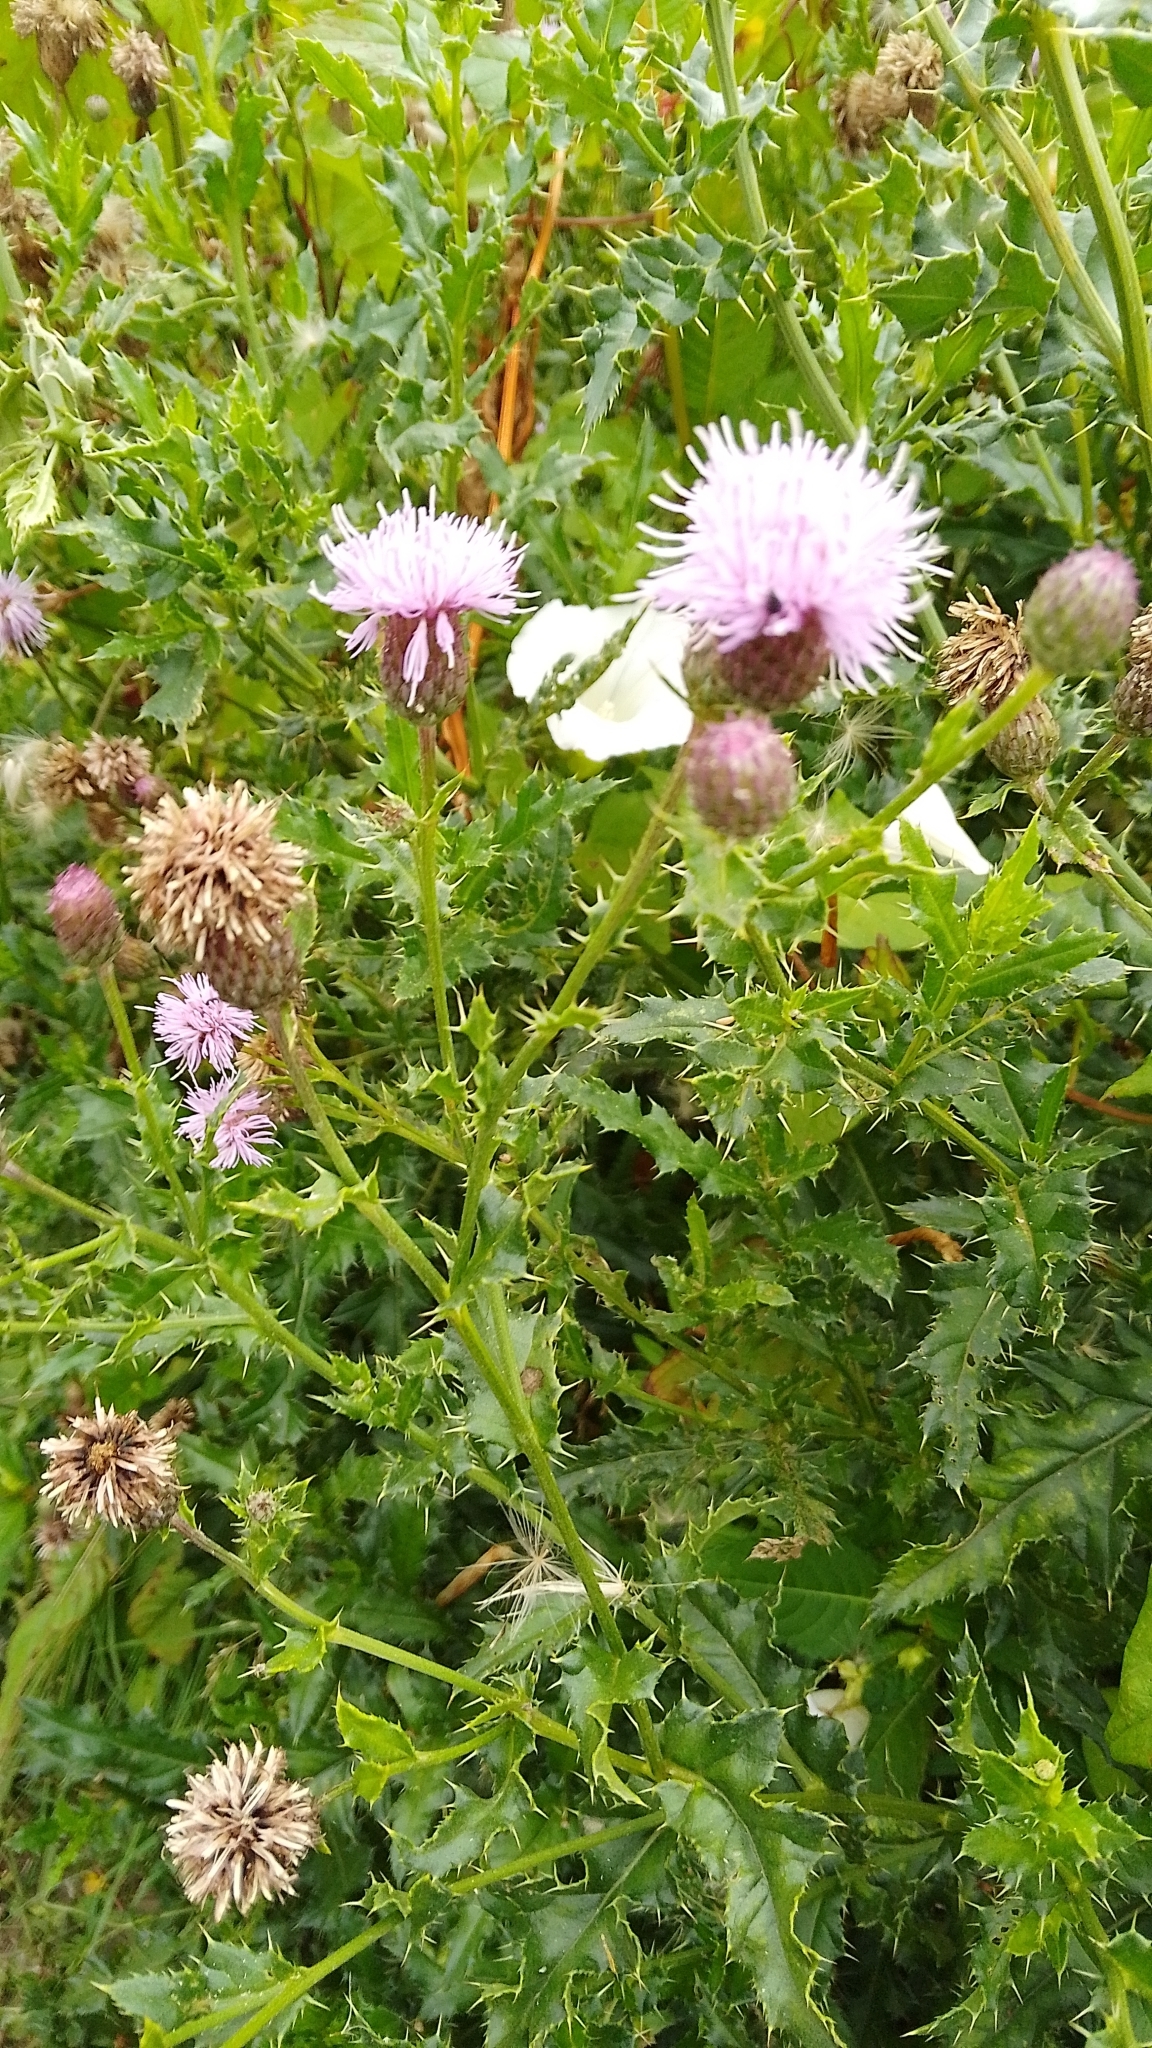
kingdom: Plantae
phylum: Tracheophyta
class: Magnoliopsida
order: Asterales
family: Asteraceae
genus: Cirsium
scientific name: Cirsium arvense
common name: Creeping thistle
